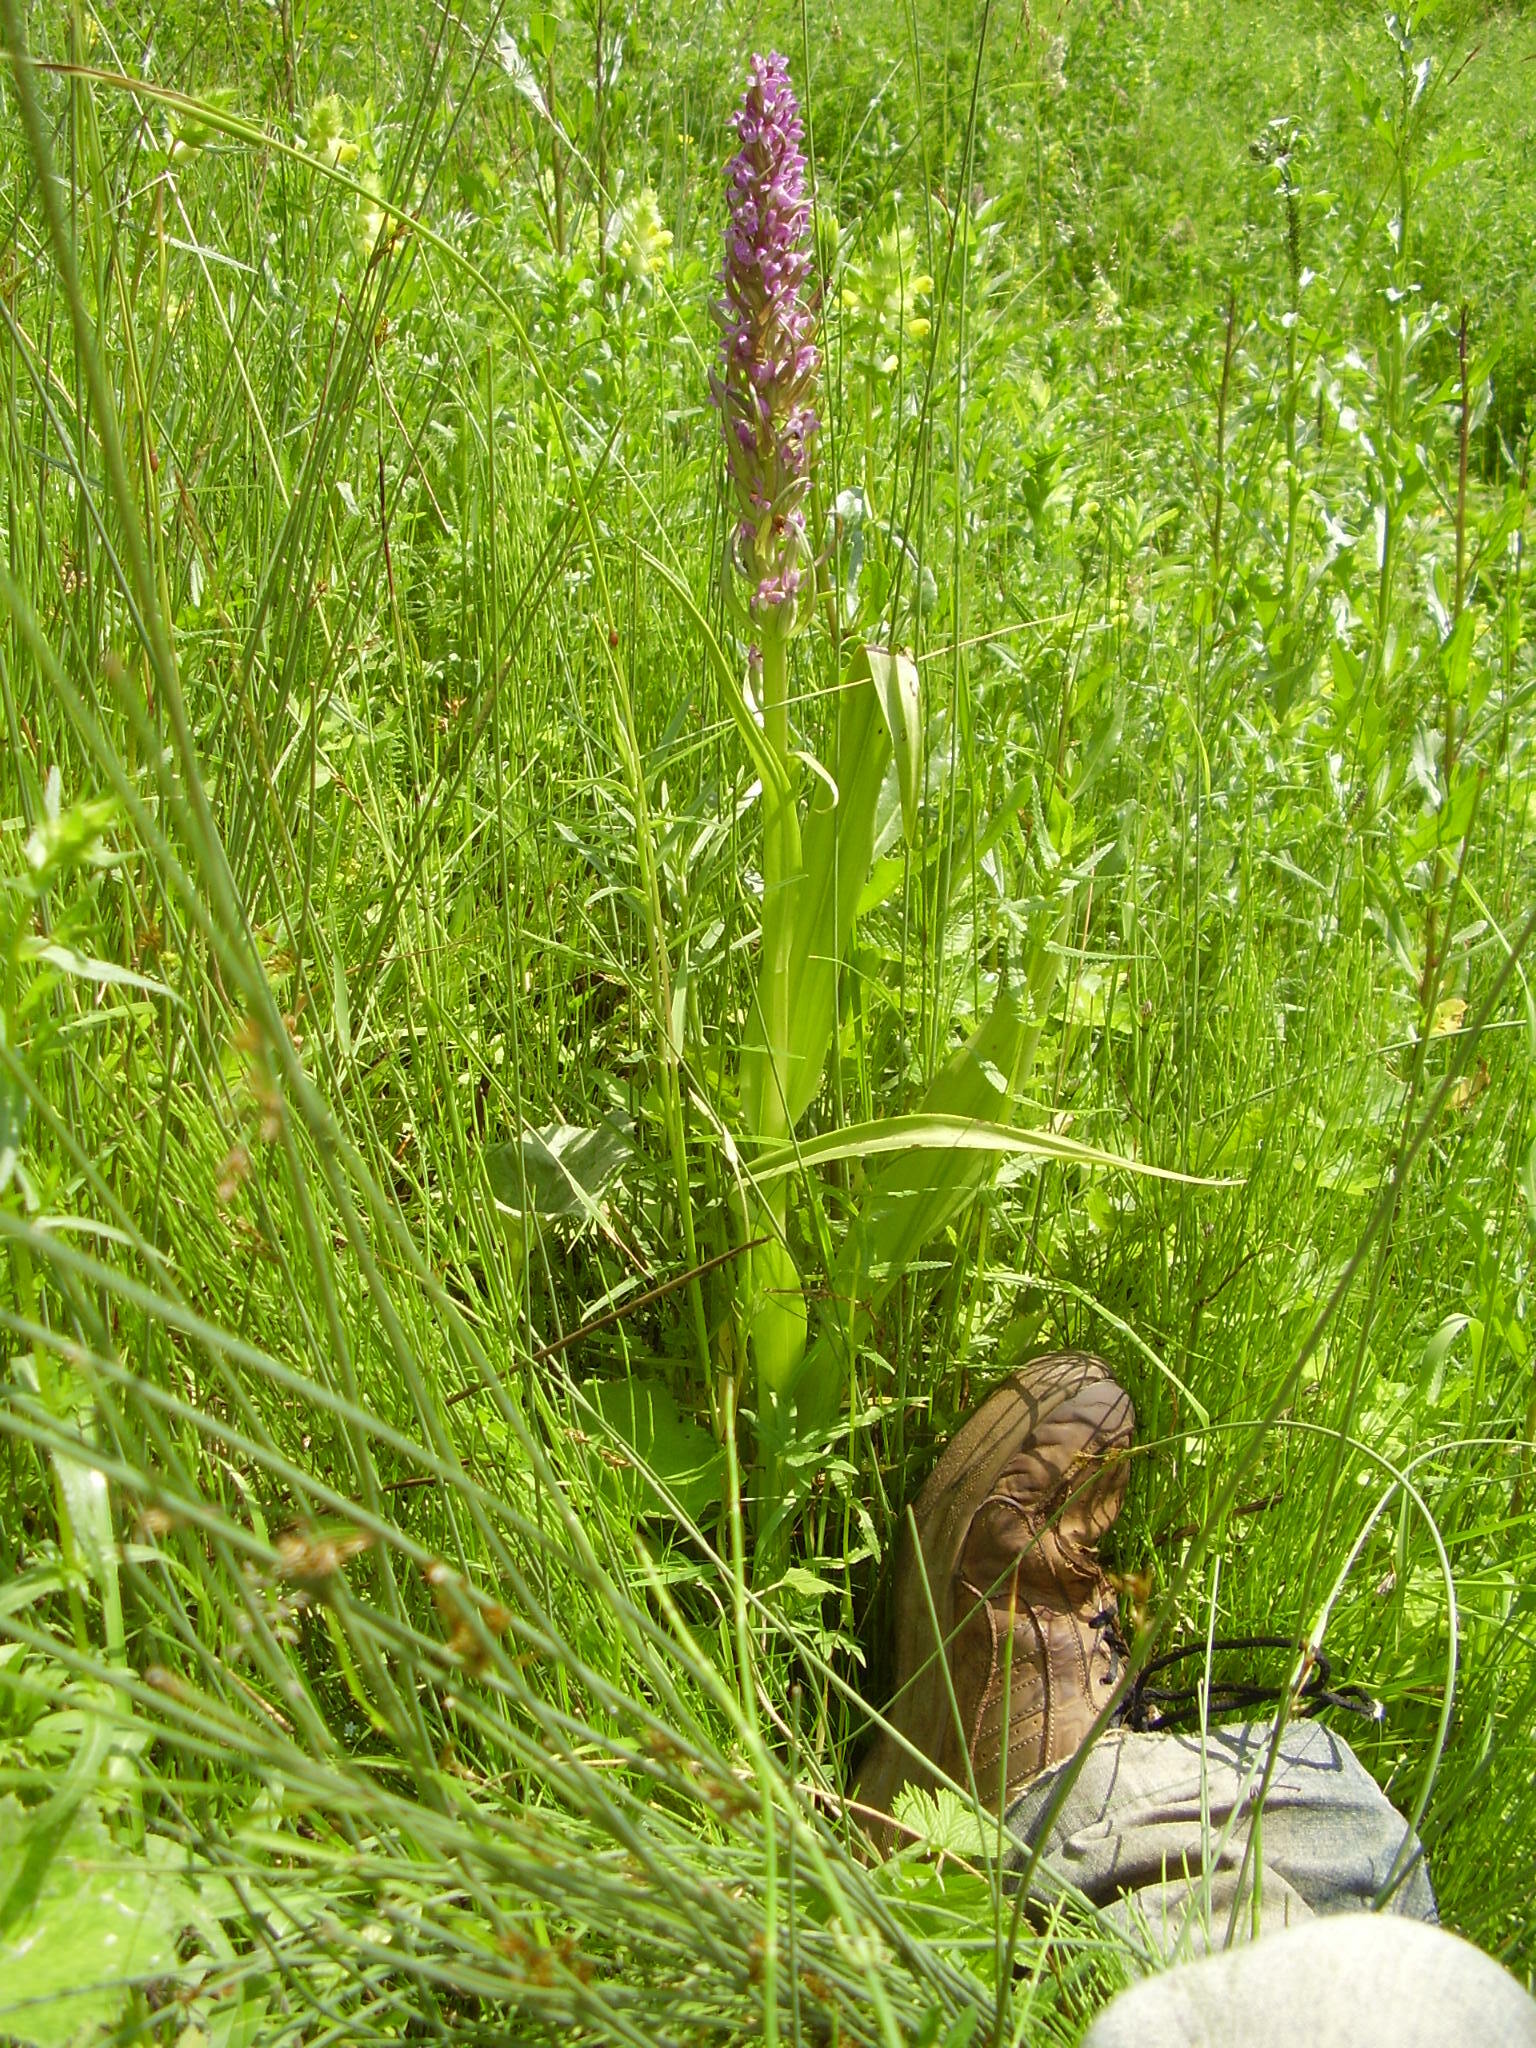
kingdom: Plantae
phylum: Tracheophyta
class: Liliopsida
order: Asparagales
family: Orchidaceae
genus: Dactylorhiza
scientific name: Dactylorhiza incarnata
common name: Early marsh-orchid
